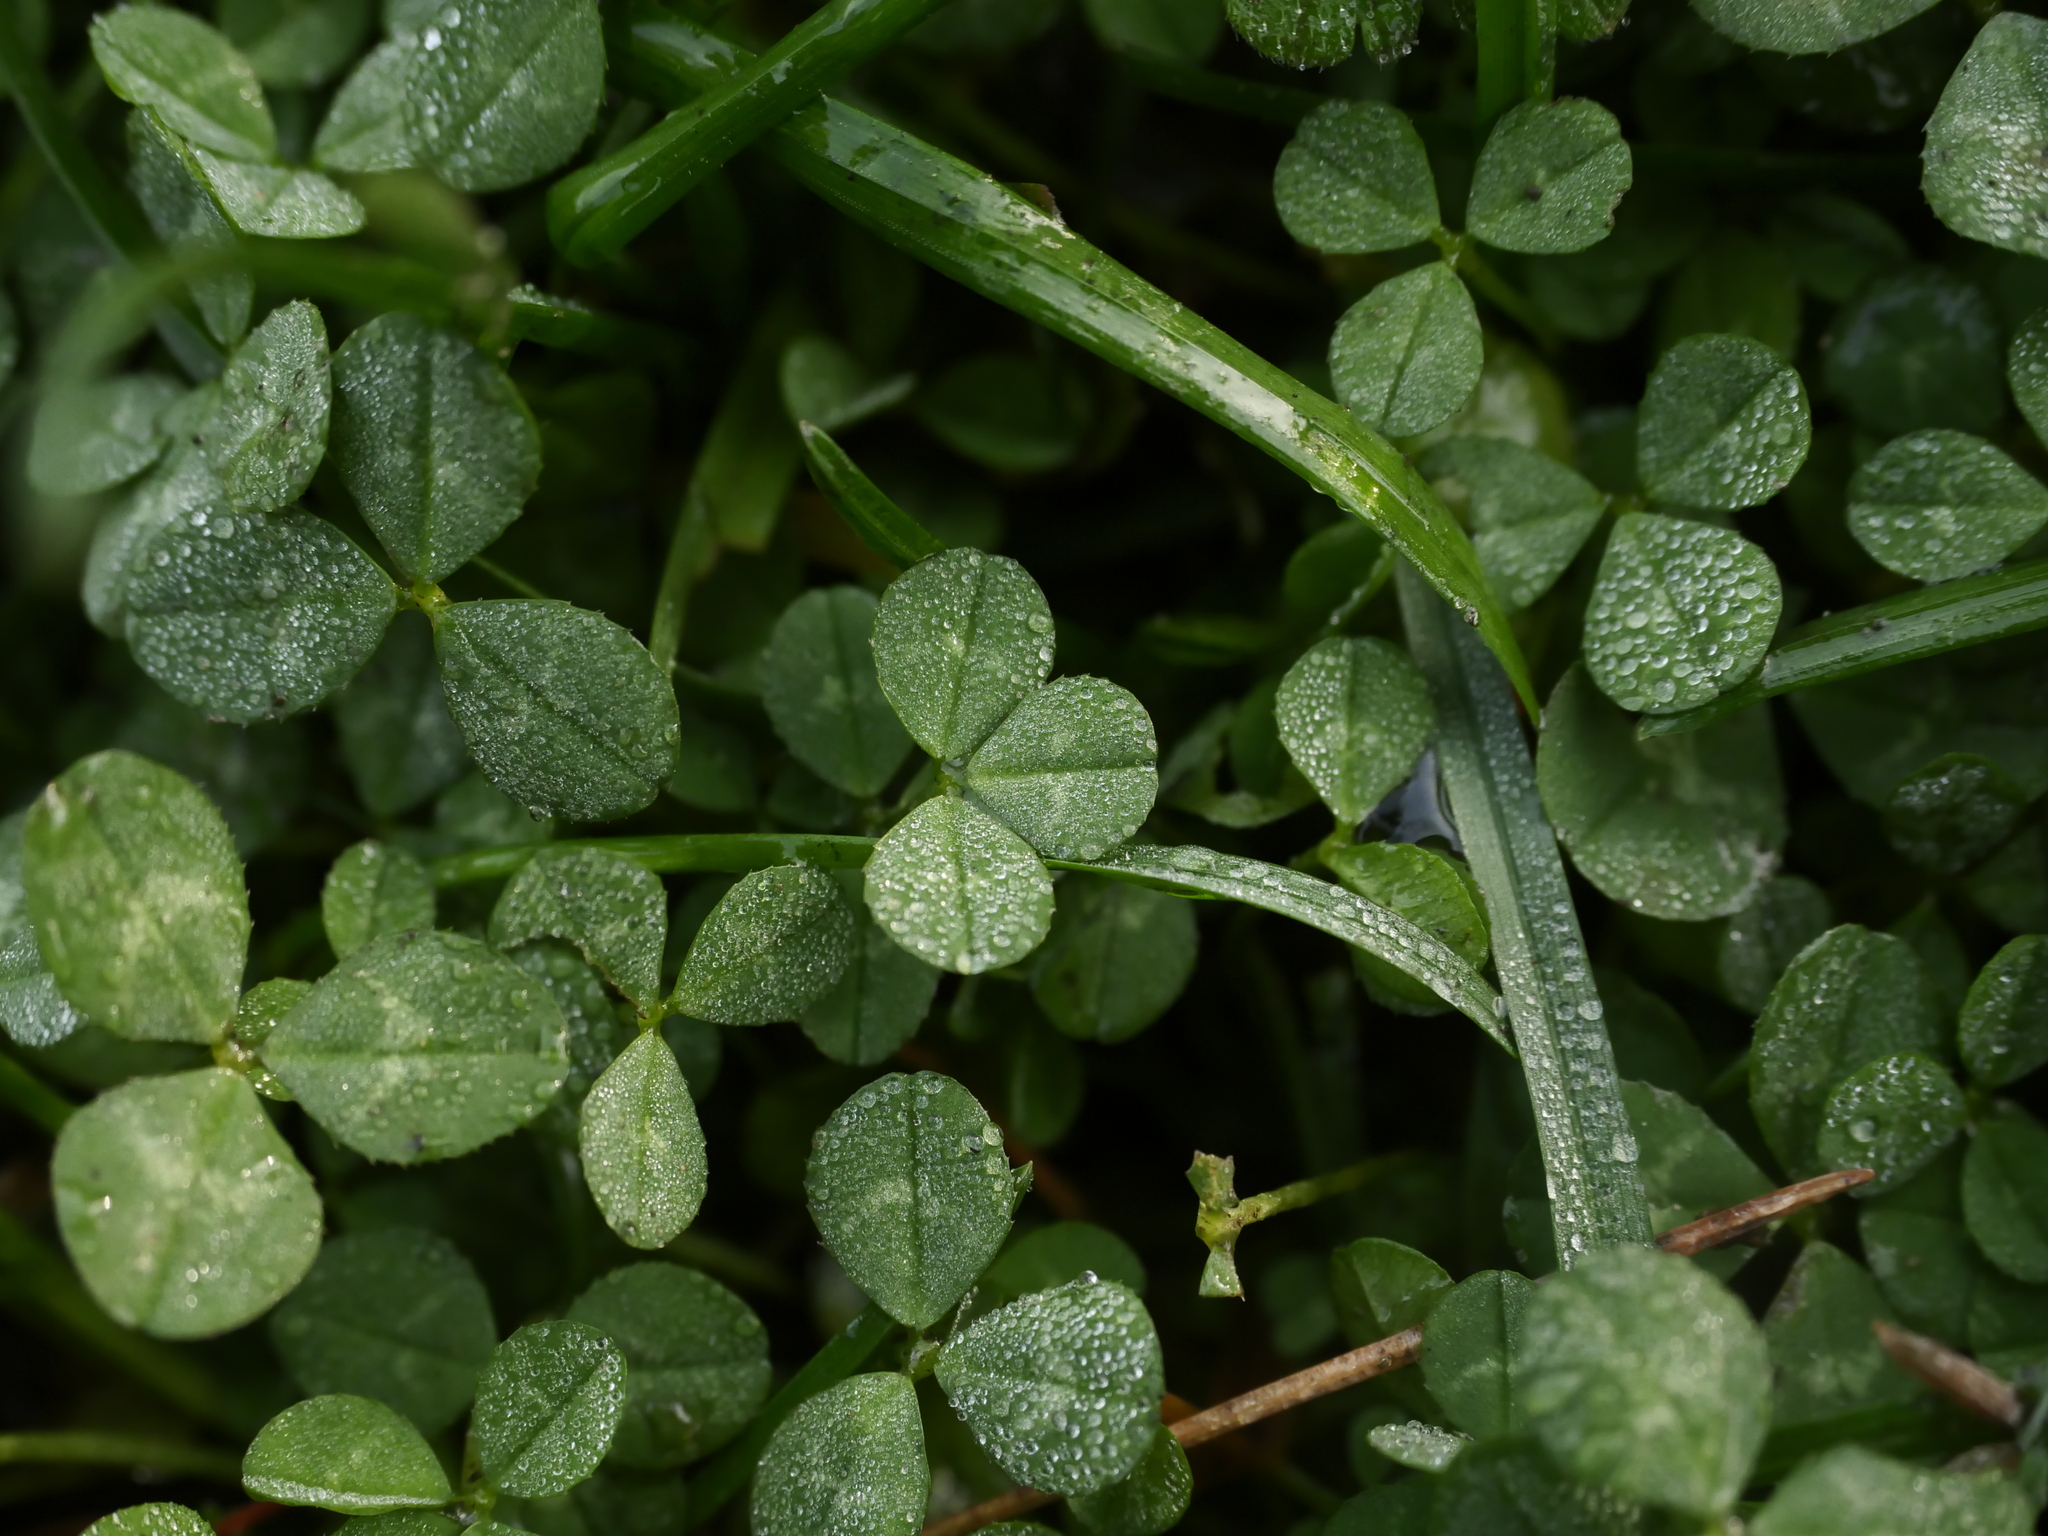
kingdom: Plantae
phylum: Tracheophyta
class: Magnoliopsida
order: Fabales
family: Fabaceae
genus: Trifolium
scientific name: Trifolium repens
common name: White clover
